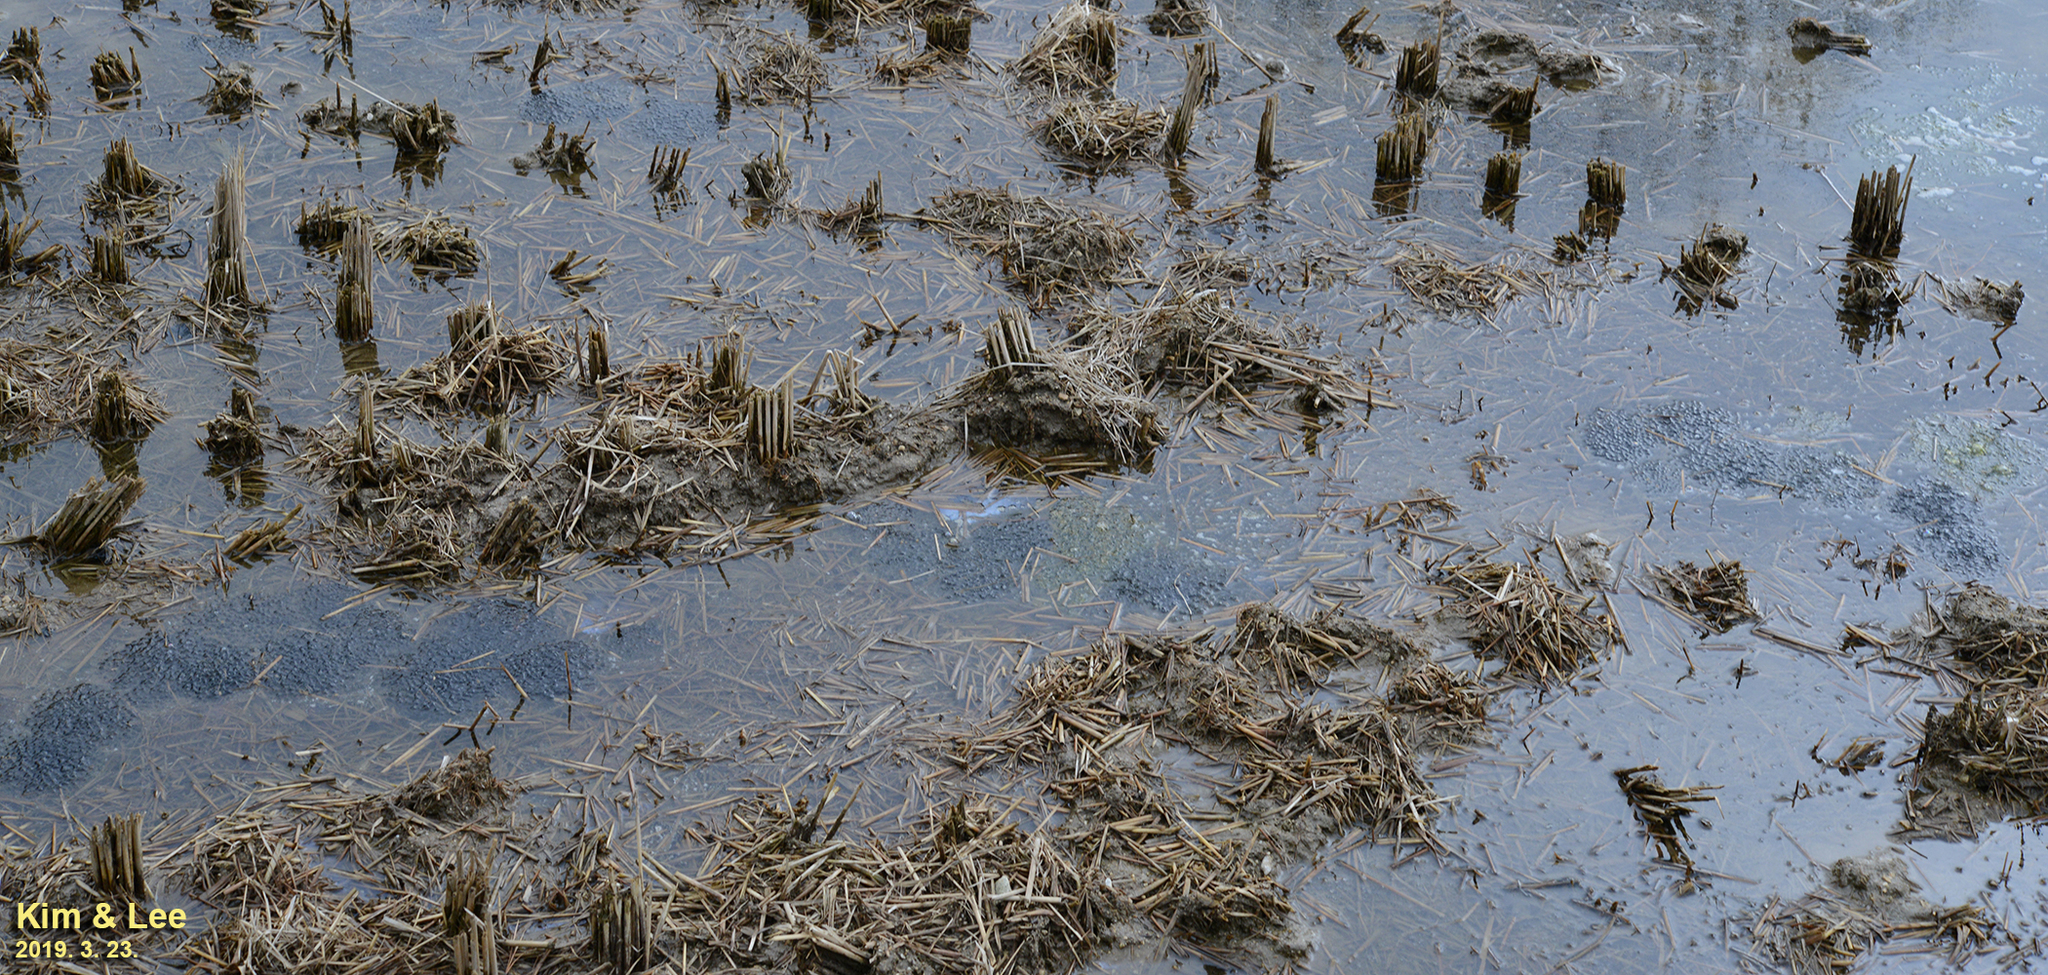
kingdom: Animalia
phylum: Chordata
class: Amphibia
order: Anura
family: Ranidae
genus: Rana
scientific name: Rana uenoi
